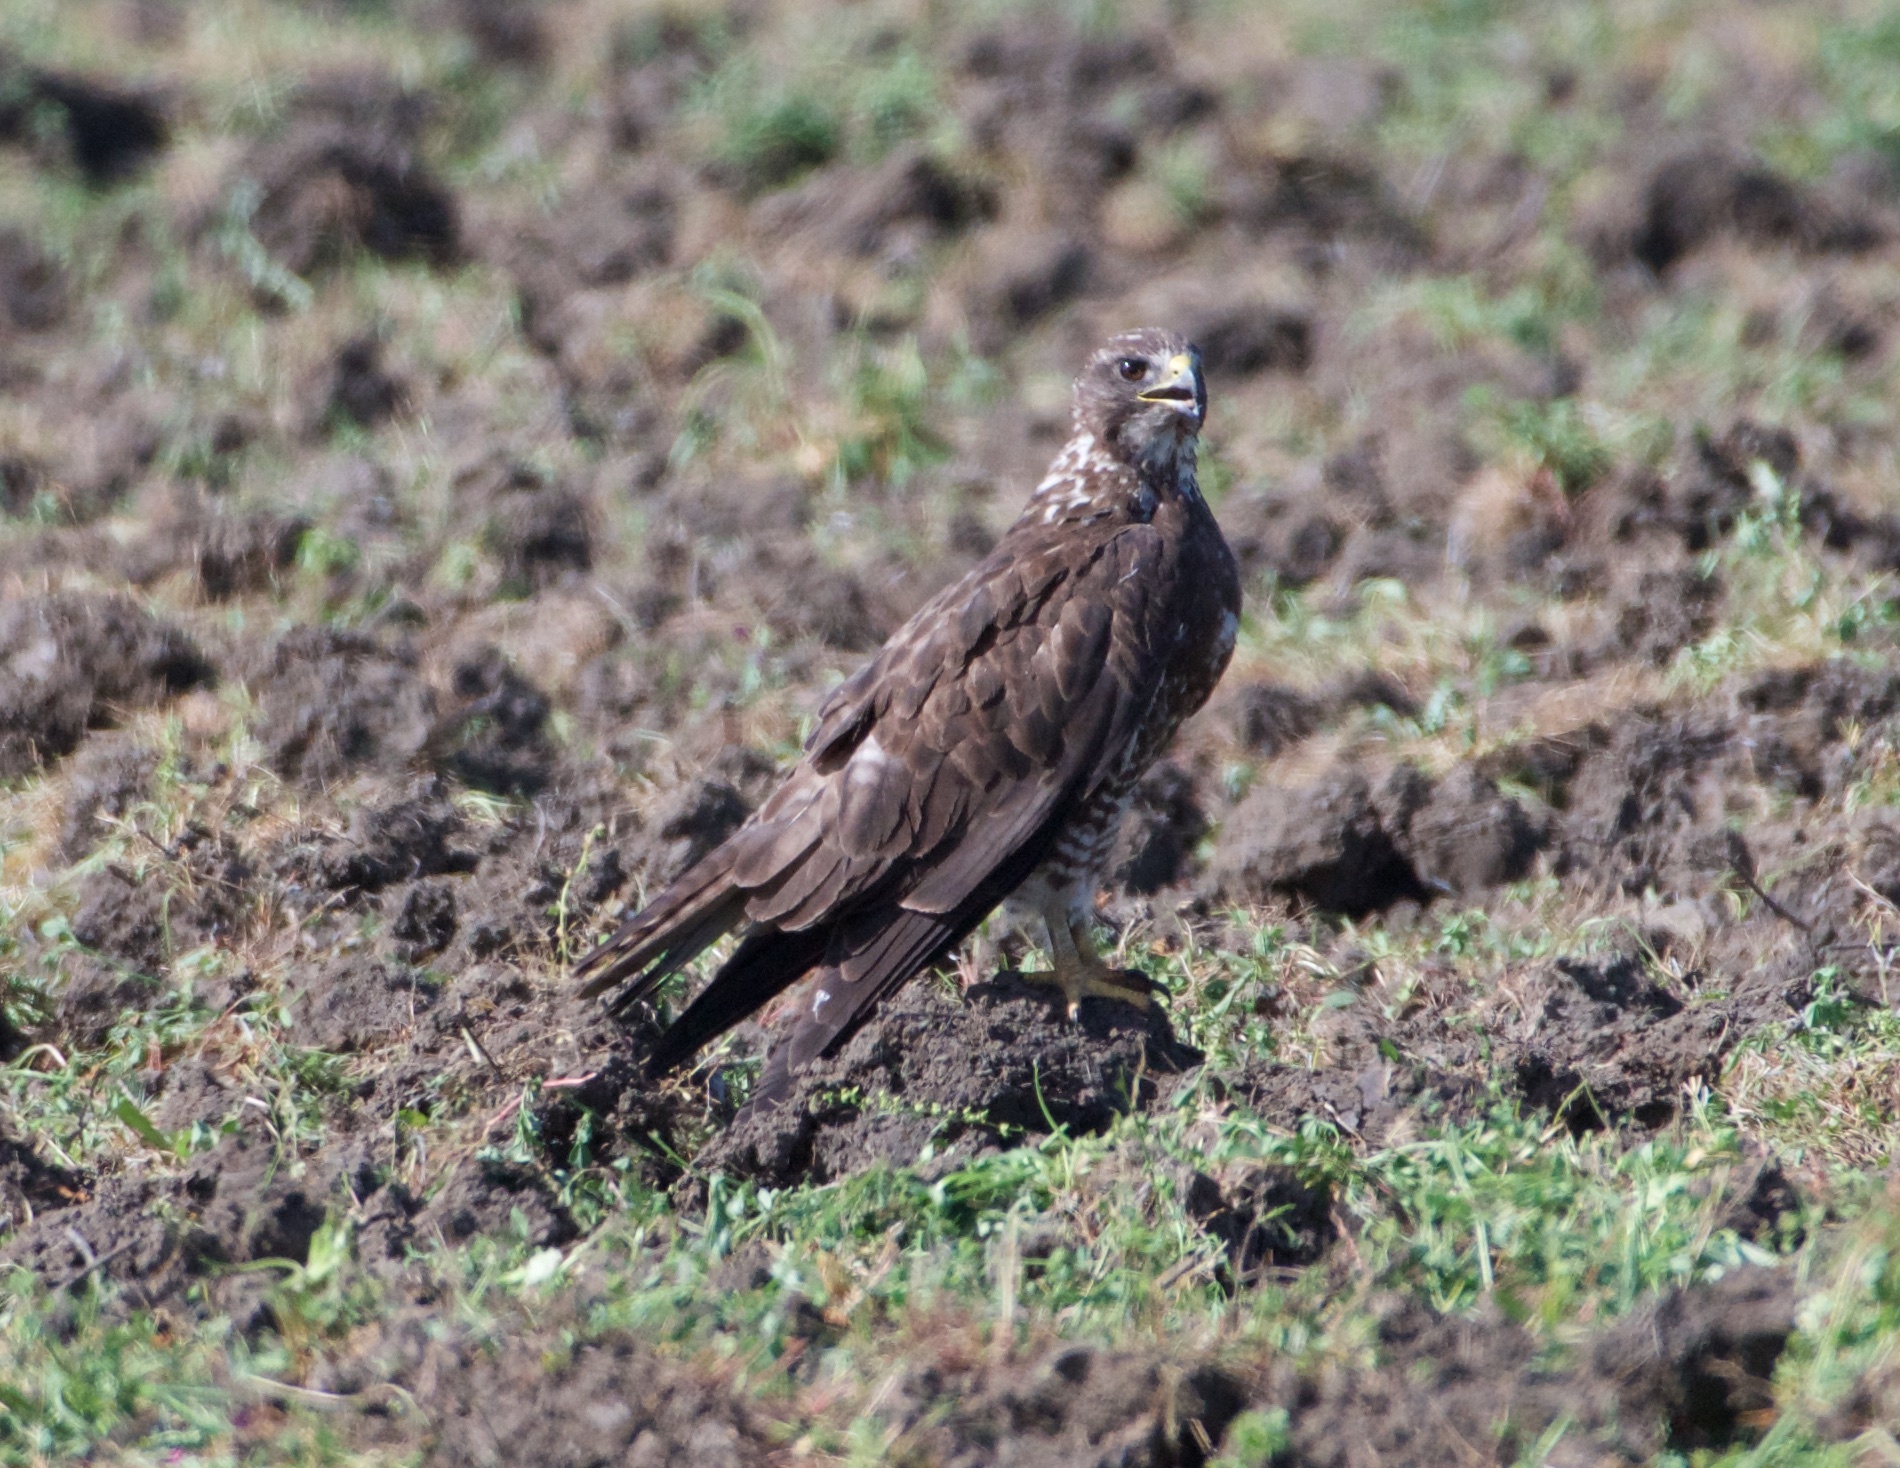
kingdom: Animalia
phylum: Chordata
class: Aves
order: Accipitriformes
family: Accipitridae
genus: Buteo
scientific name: Buteo swainsoni
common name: Swainson's hawk
